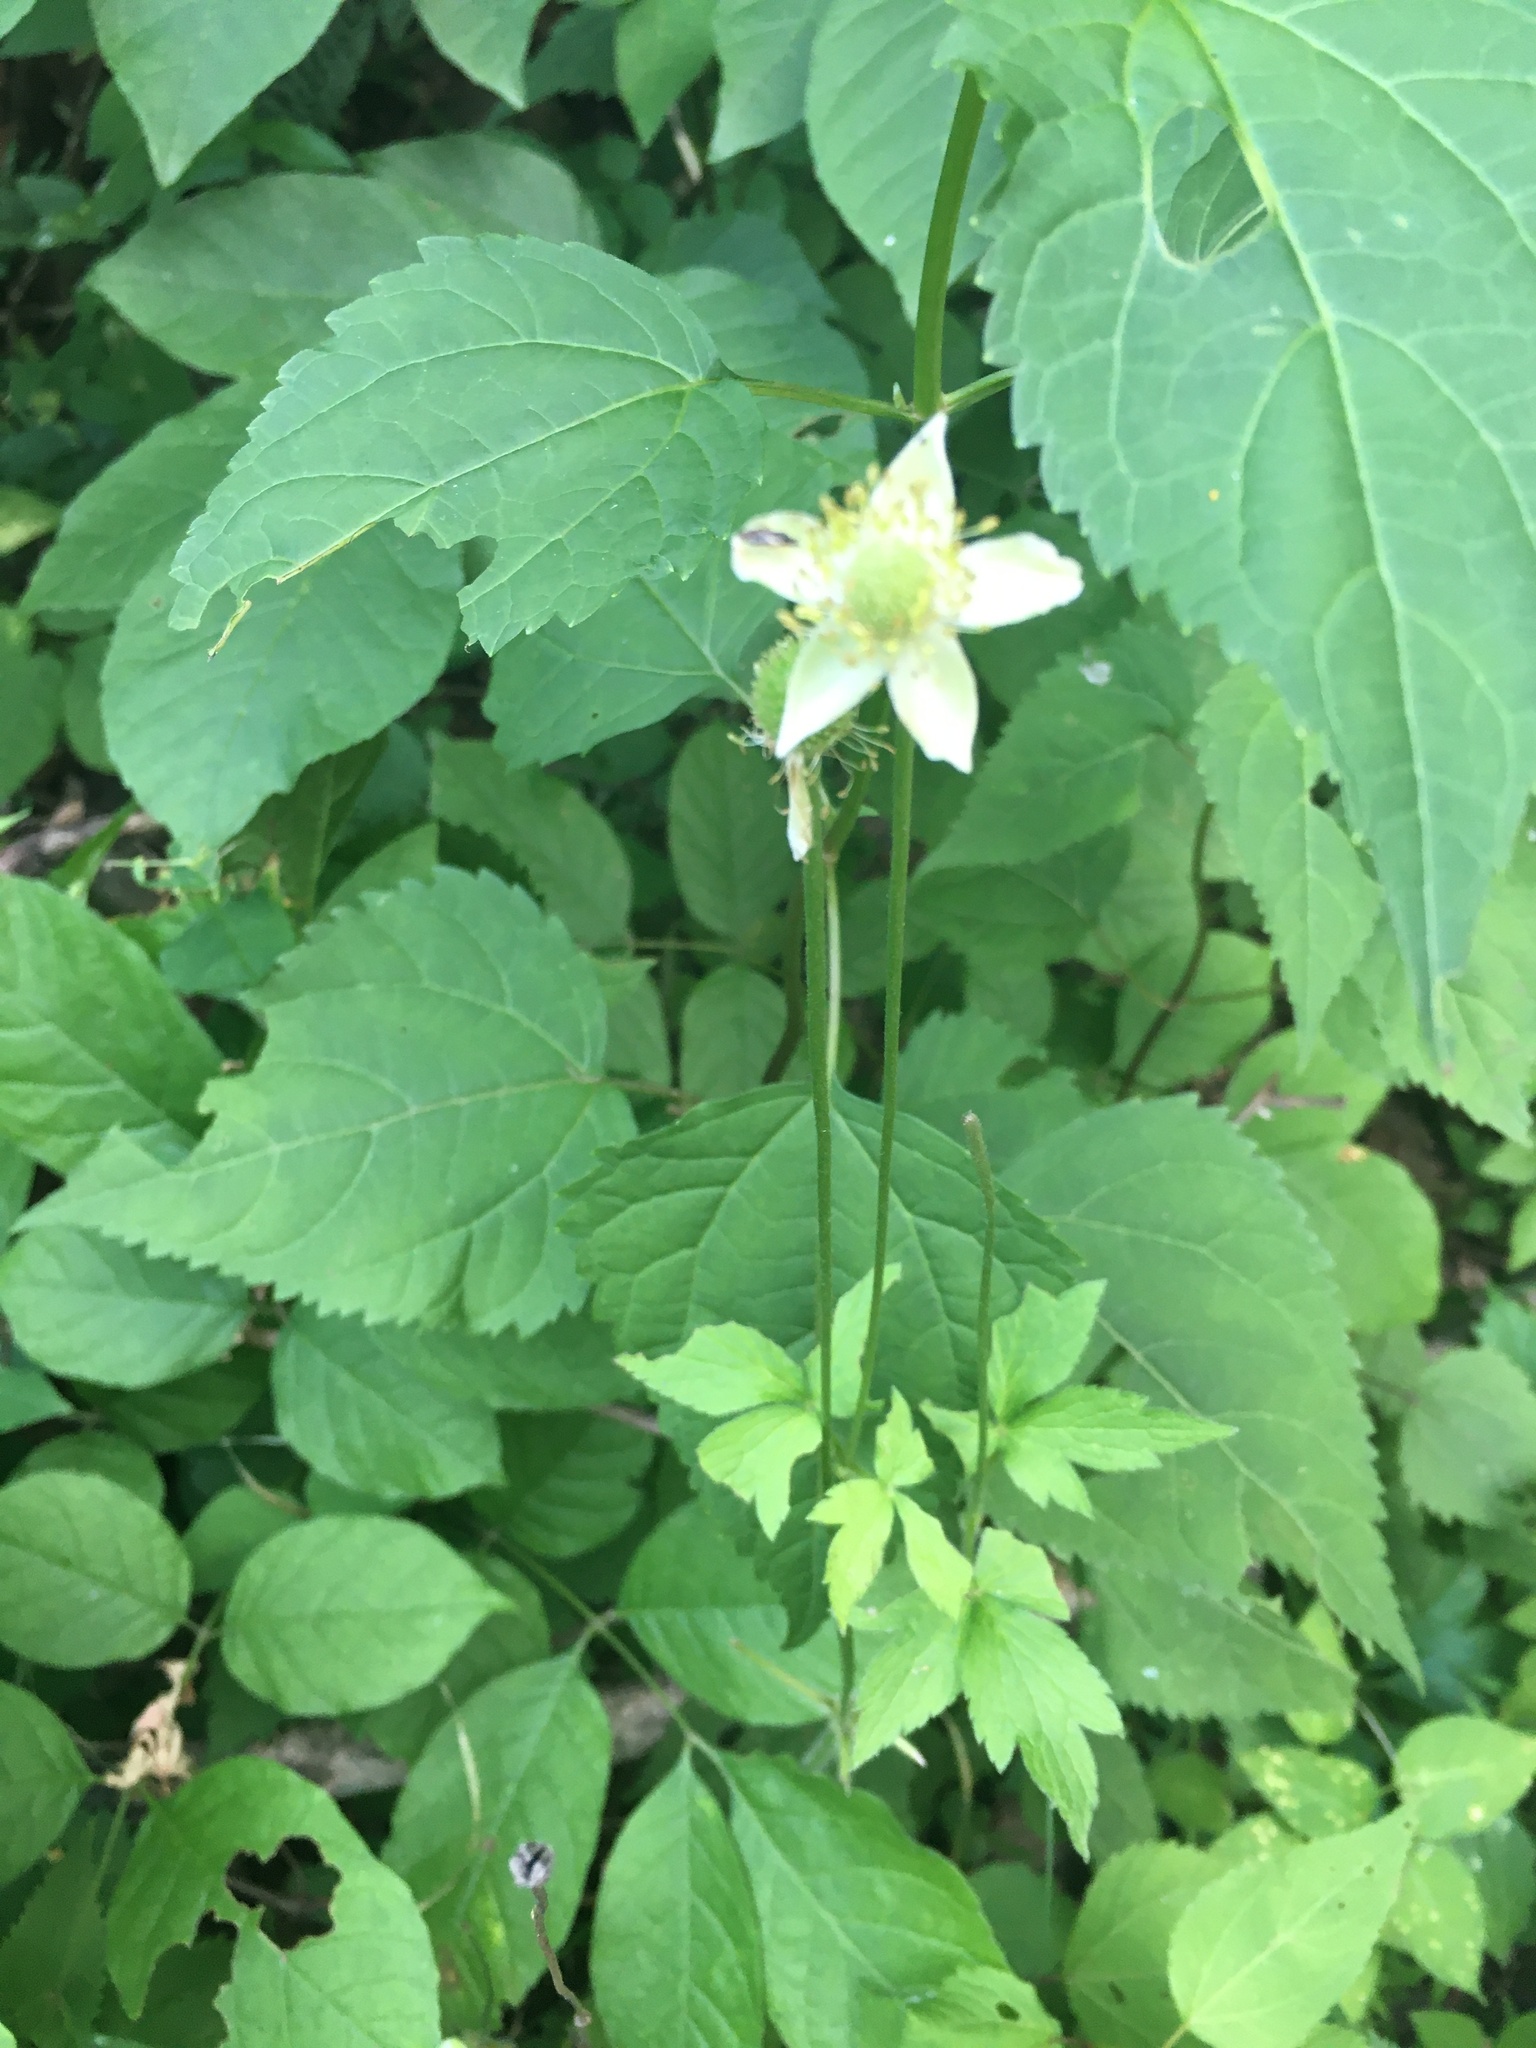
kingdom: Plantae
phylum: Tracheophyta
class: Magnoliopsida
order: Ranunculales
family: Ranunculaceae
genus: Anemone
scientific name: Anemone virginiana
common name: Tall anemone
